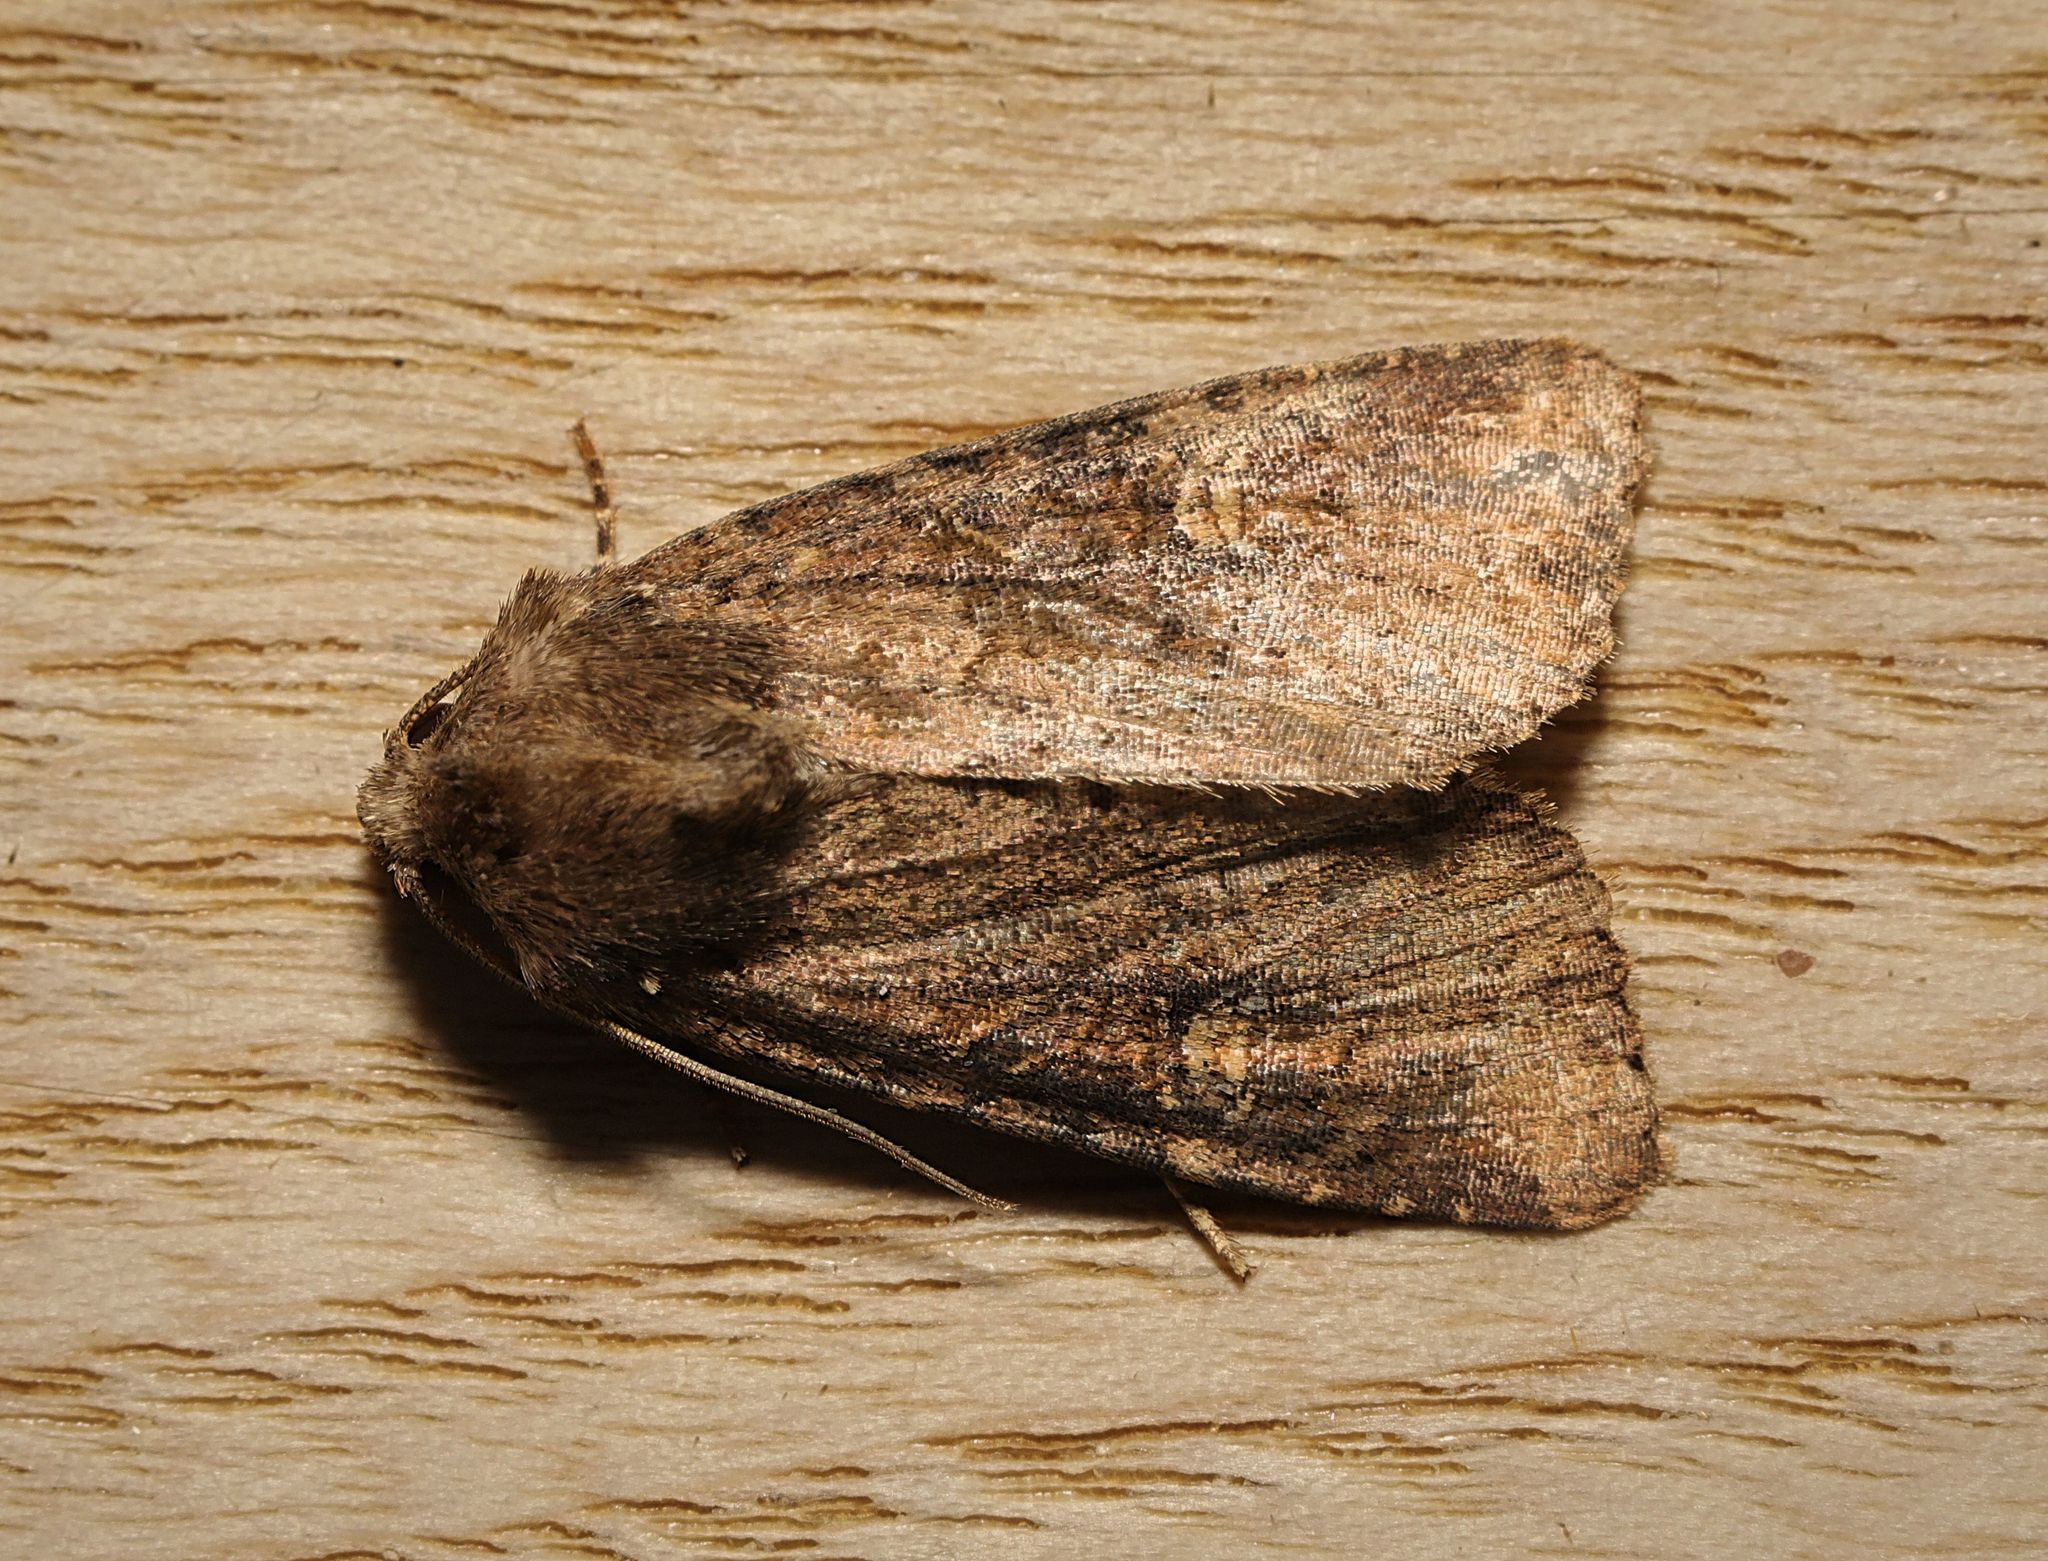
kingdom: Animalia
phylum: Arthropoda
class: Insecta
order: Lepidoptera
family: Noctuidae
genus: Mesapamea
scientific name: Mesapamea
